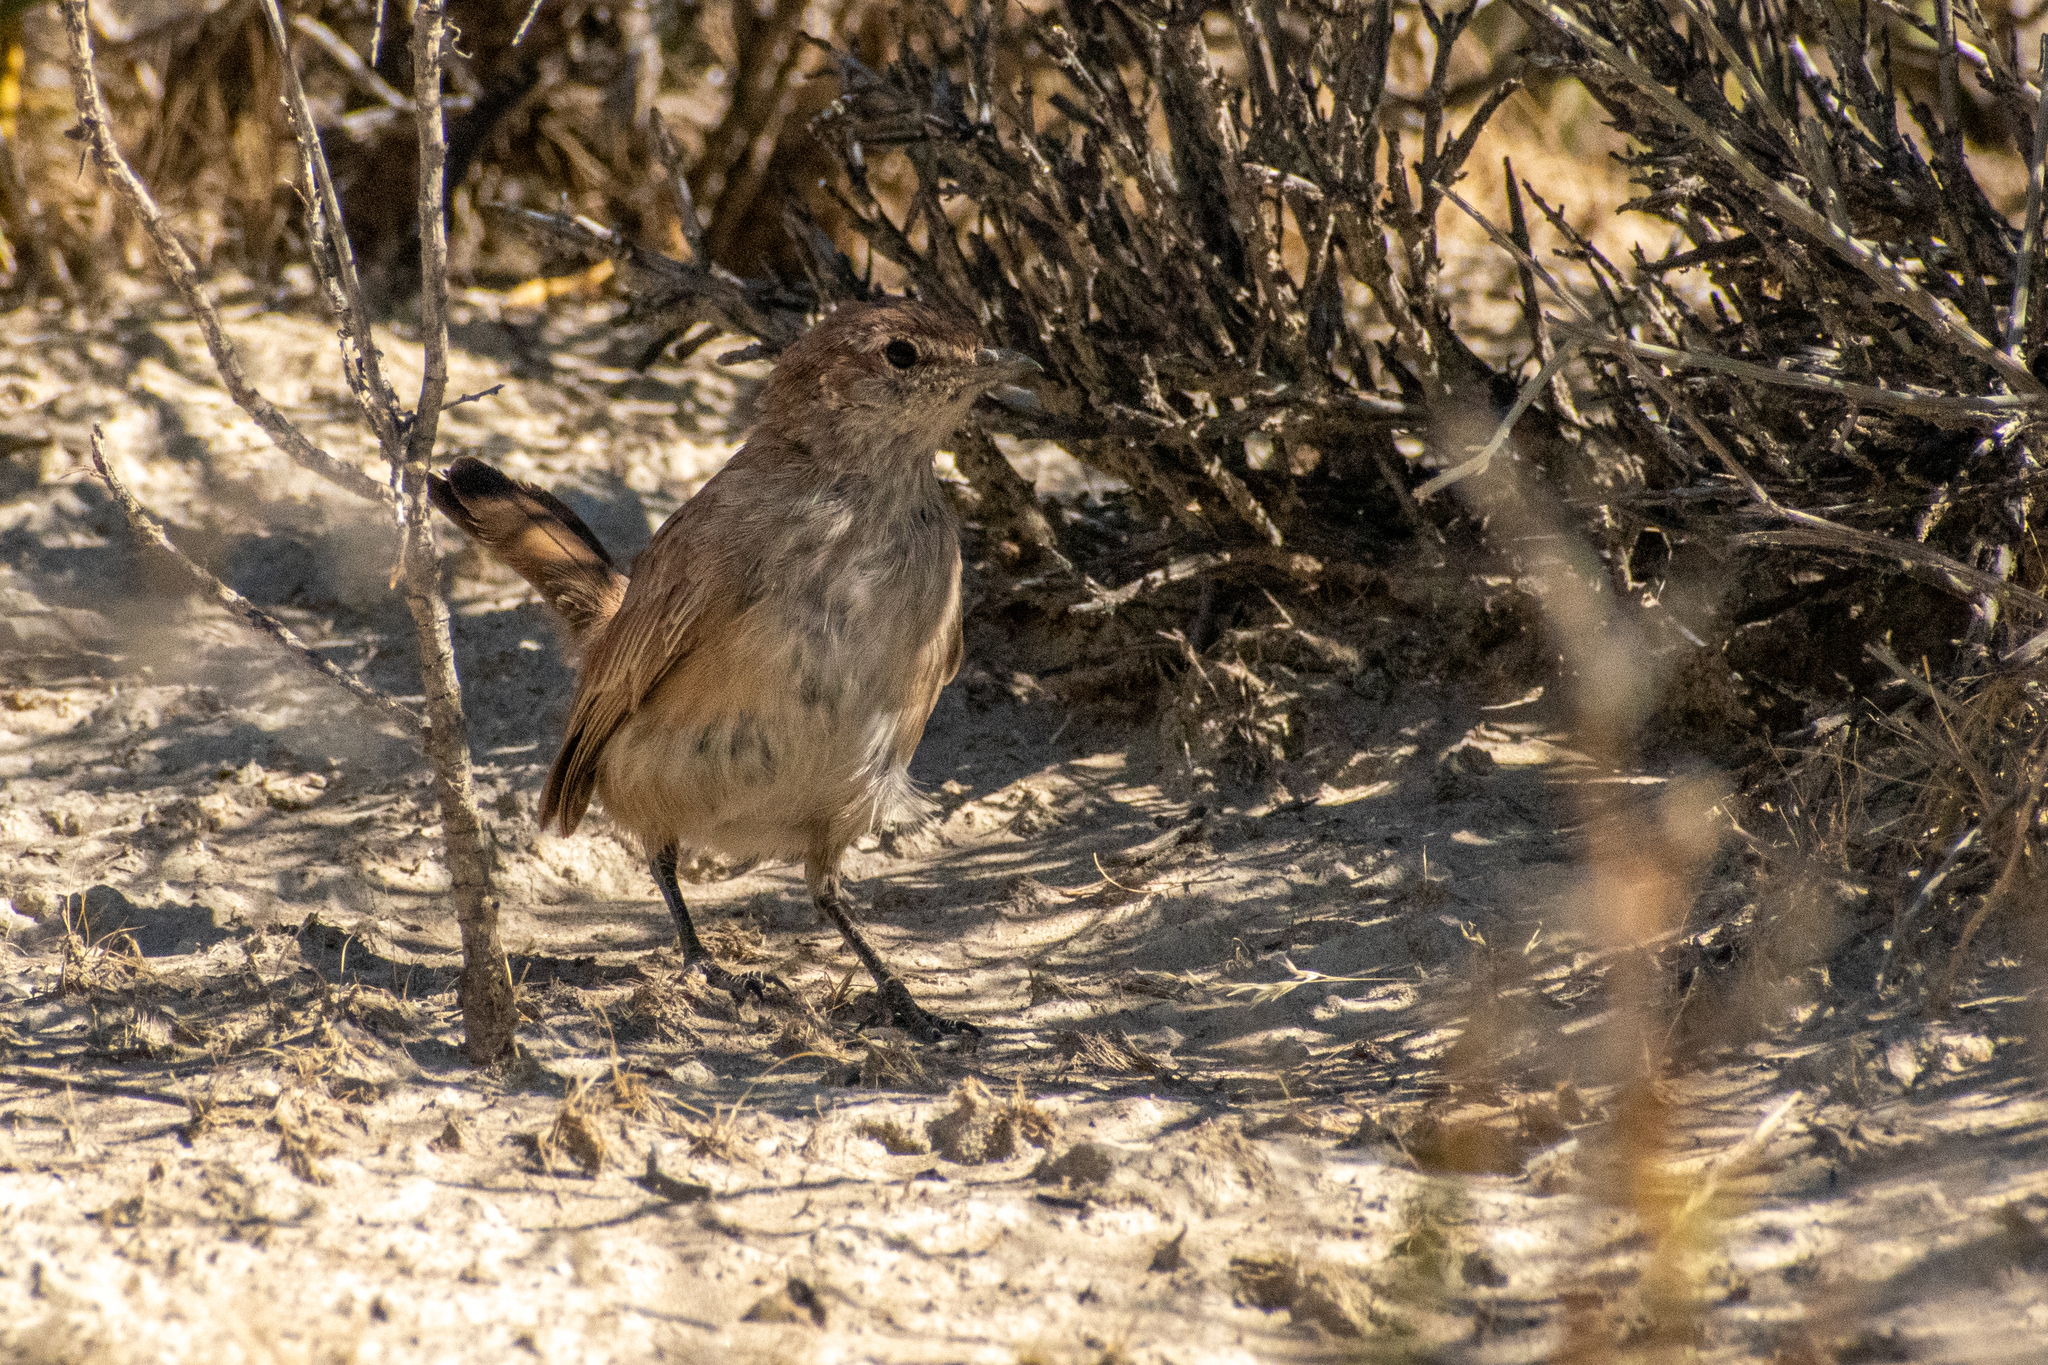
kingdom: Animalia
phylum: Chordata
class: Aves
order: Passeriformes
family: Rhinocryptidae
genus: Teledromas
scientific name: Teledromas fuscus
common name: Sandy gallito
